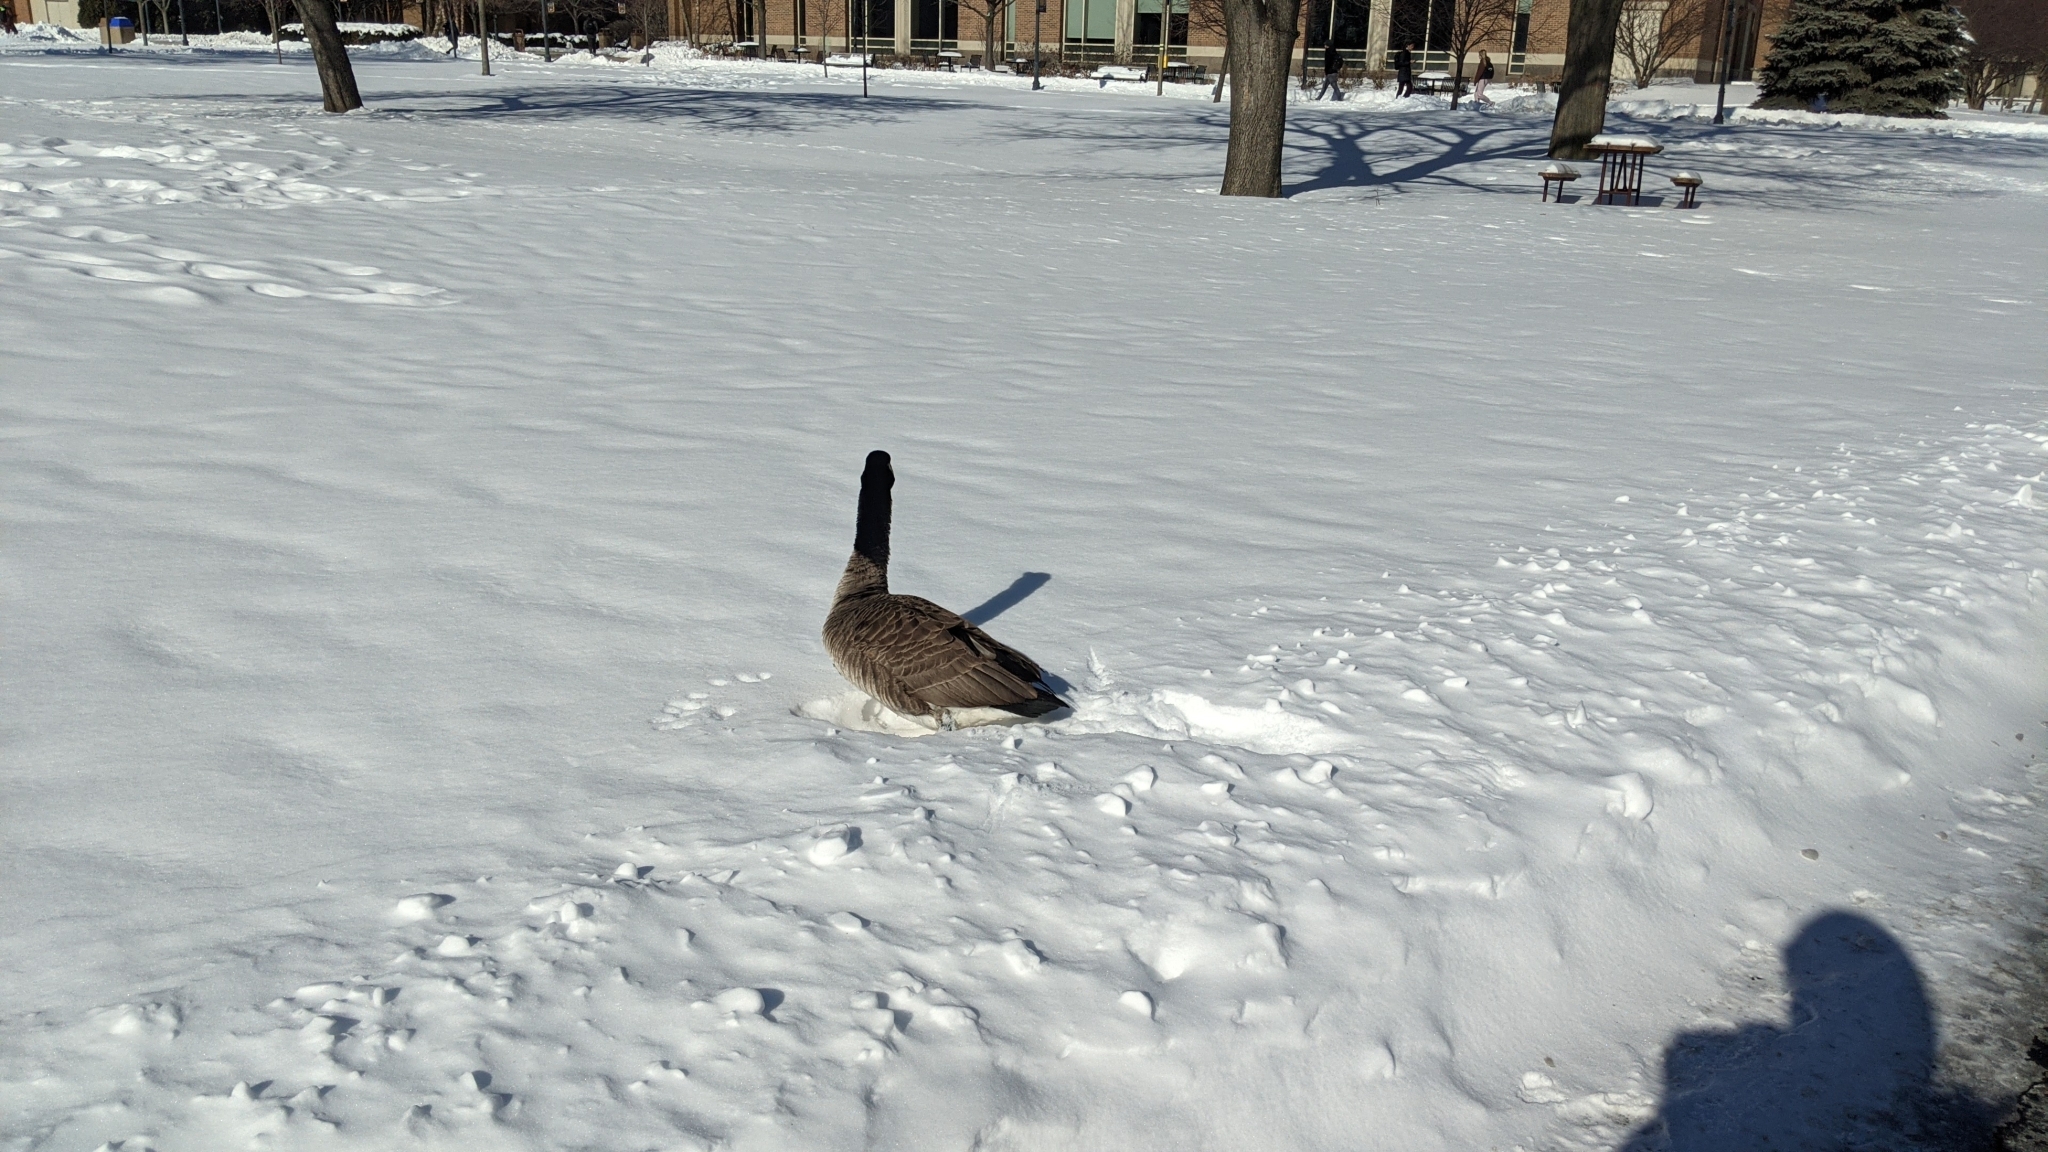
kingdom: Animalia
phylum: Chordata
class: Aves
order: Anseriformes
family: Anatidae
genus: Branta
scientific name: Branta canadensis
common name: Canada goose
